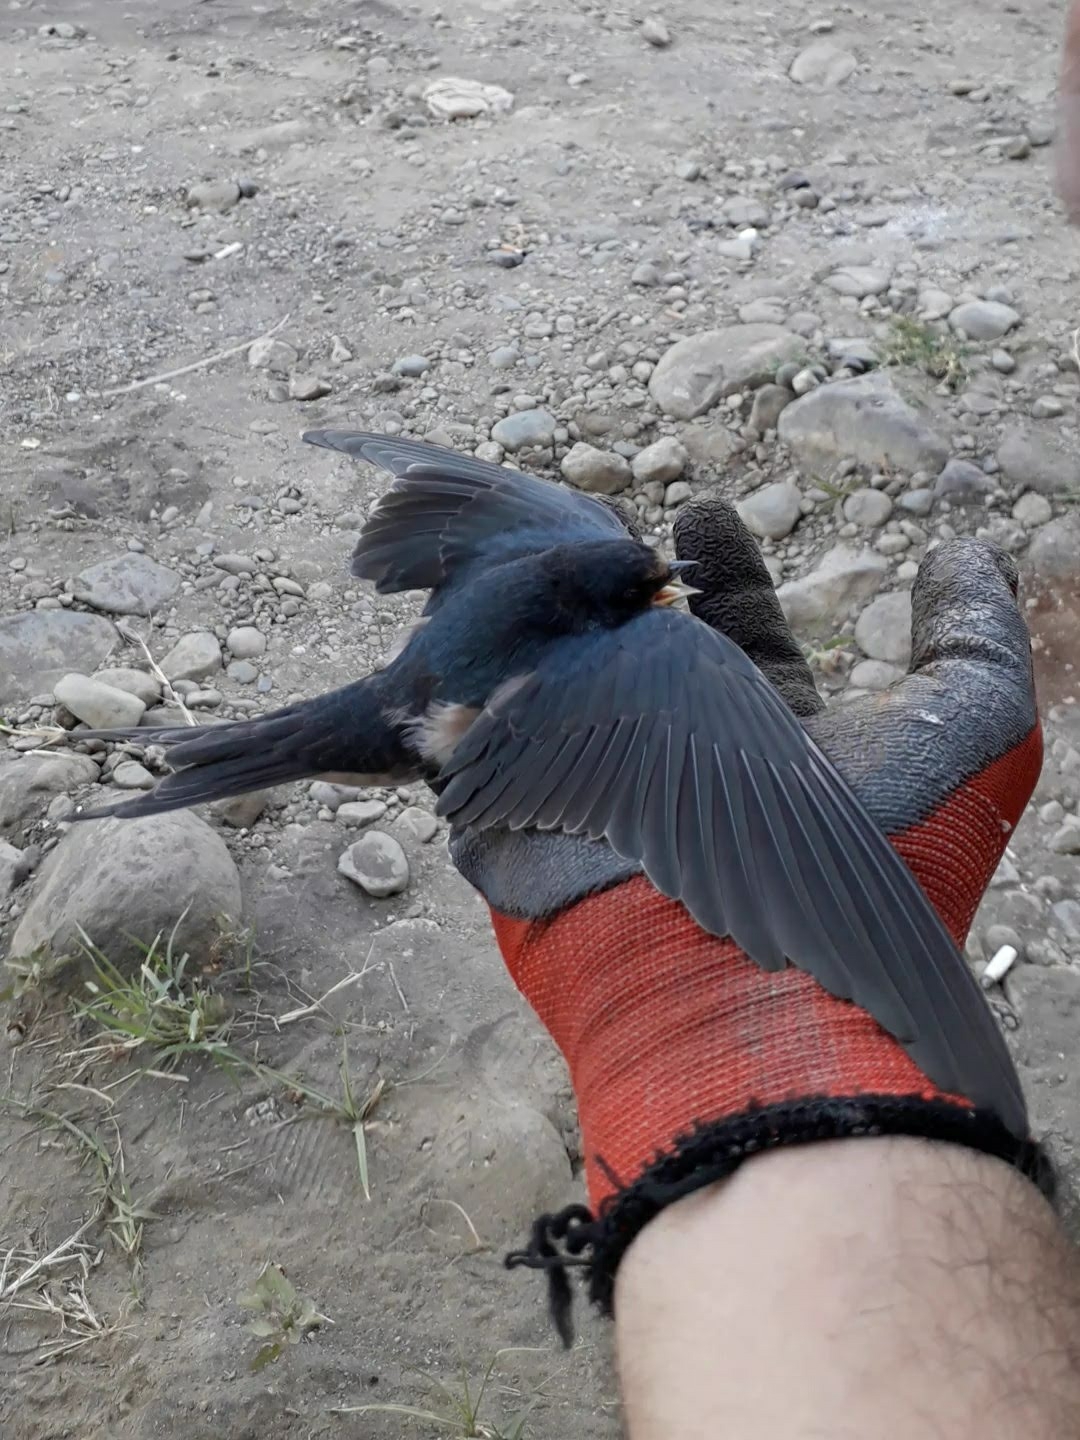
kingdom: Animalia
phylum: Chordata
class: Aves
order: Passeriformes
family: Hirundinidae
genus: Hirundo
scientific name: Hirundo rustica
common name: Barn swallow
